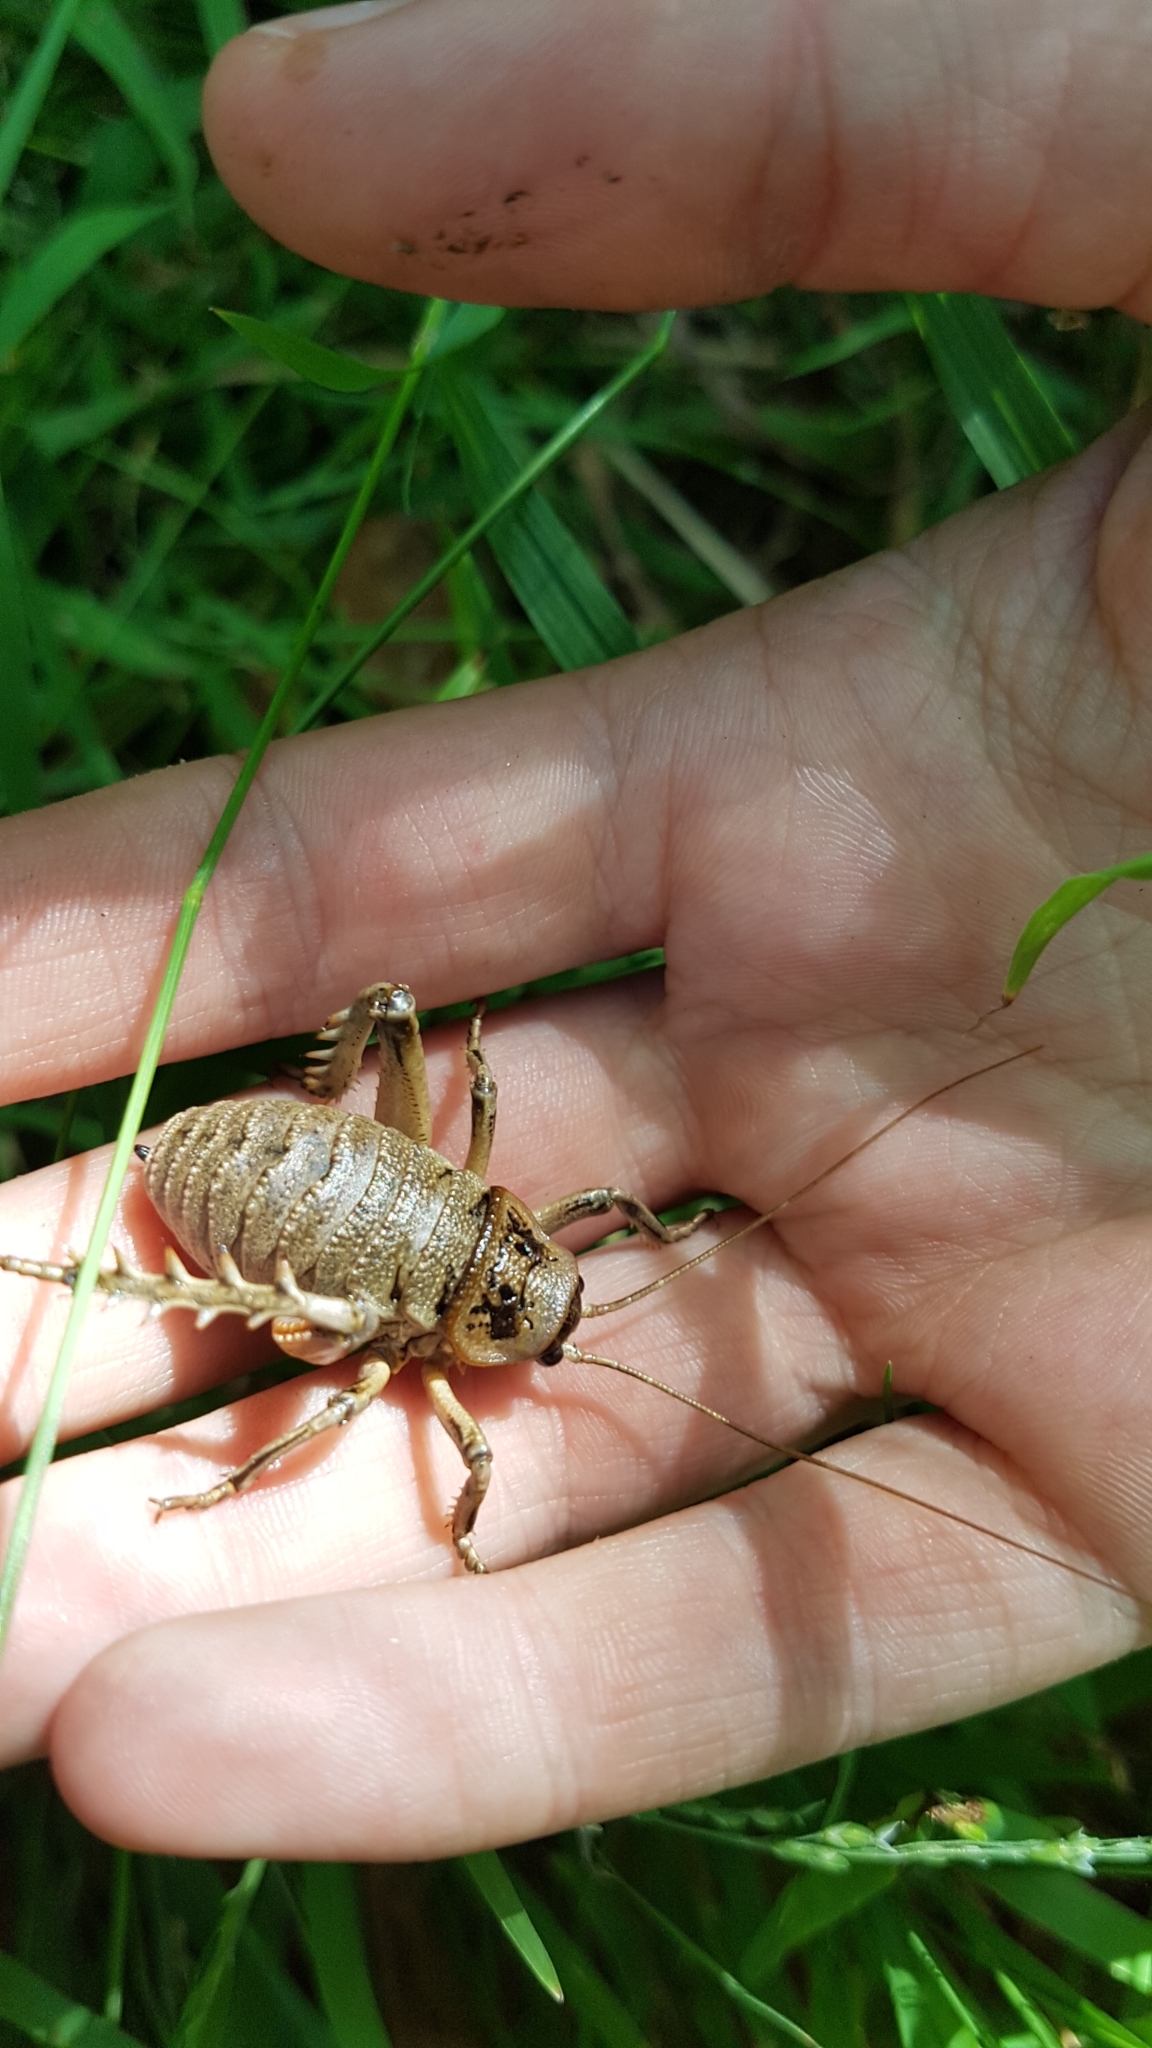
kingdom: Animalia
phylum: Arthropoda
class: Insecta
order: Orthoptera
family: Anostostomatidae
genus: Deinacrida
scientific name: Deinacrida rugosa
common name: Stephens island weta
